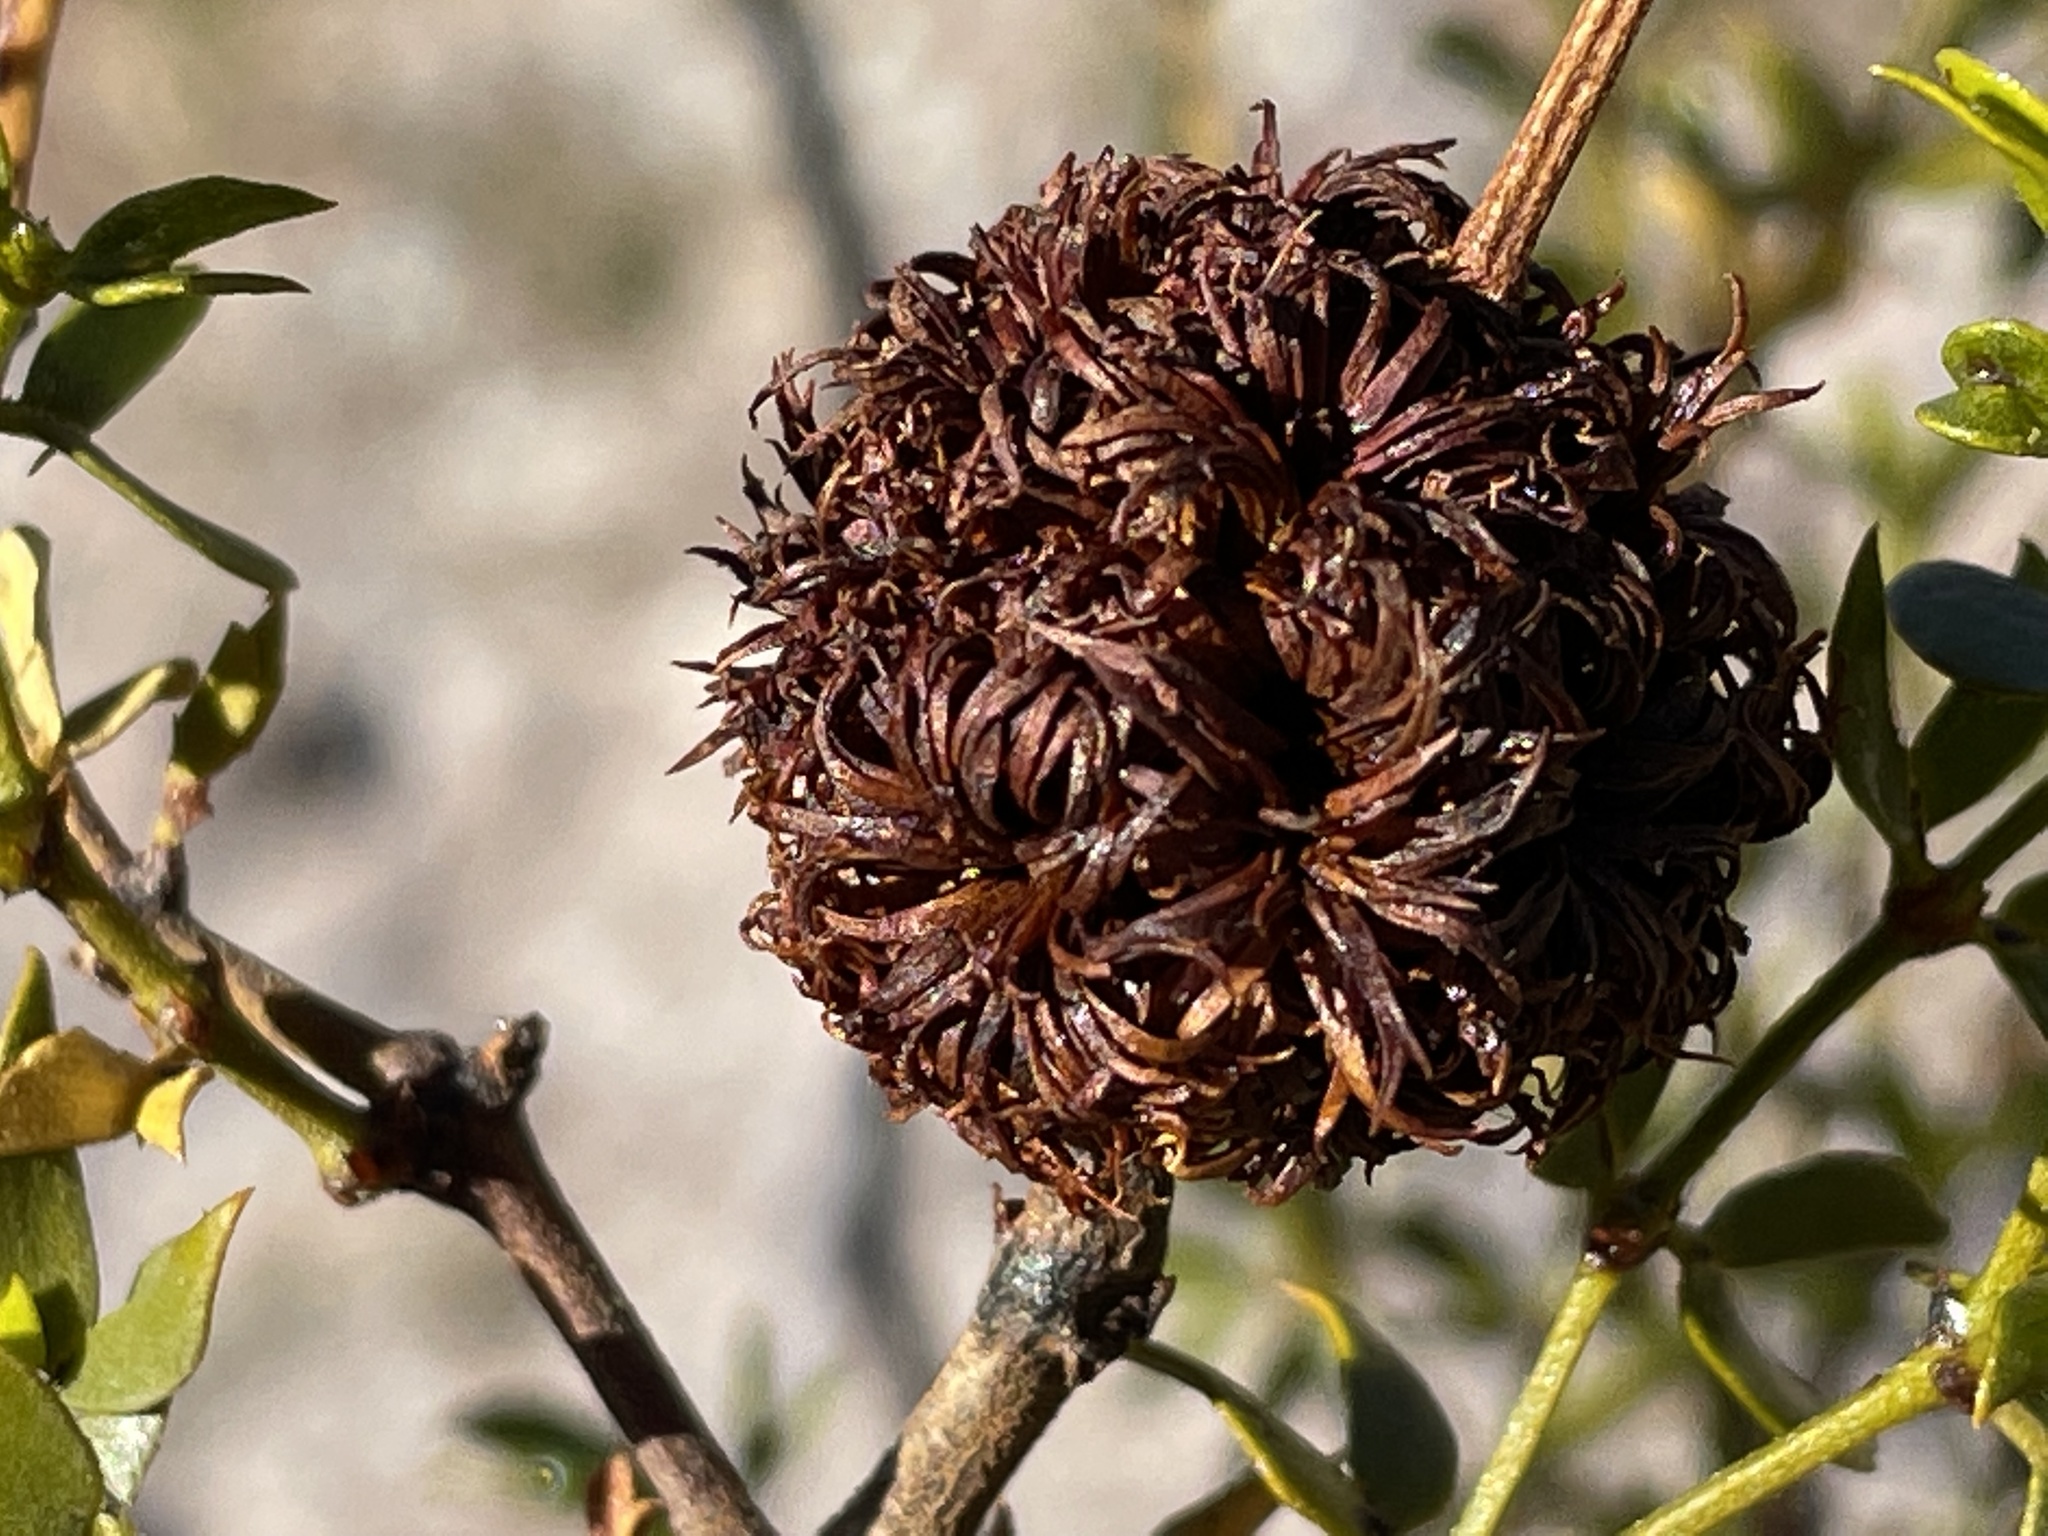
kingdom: Animalia
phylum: Arthropoda
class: Insecta
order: Diptera
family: Cecidomyiidae
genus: Asphondylia
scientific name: Asphondylia auripila
